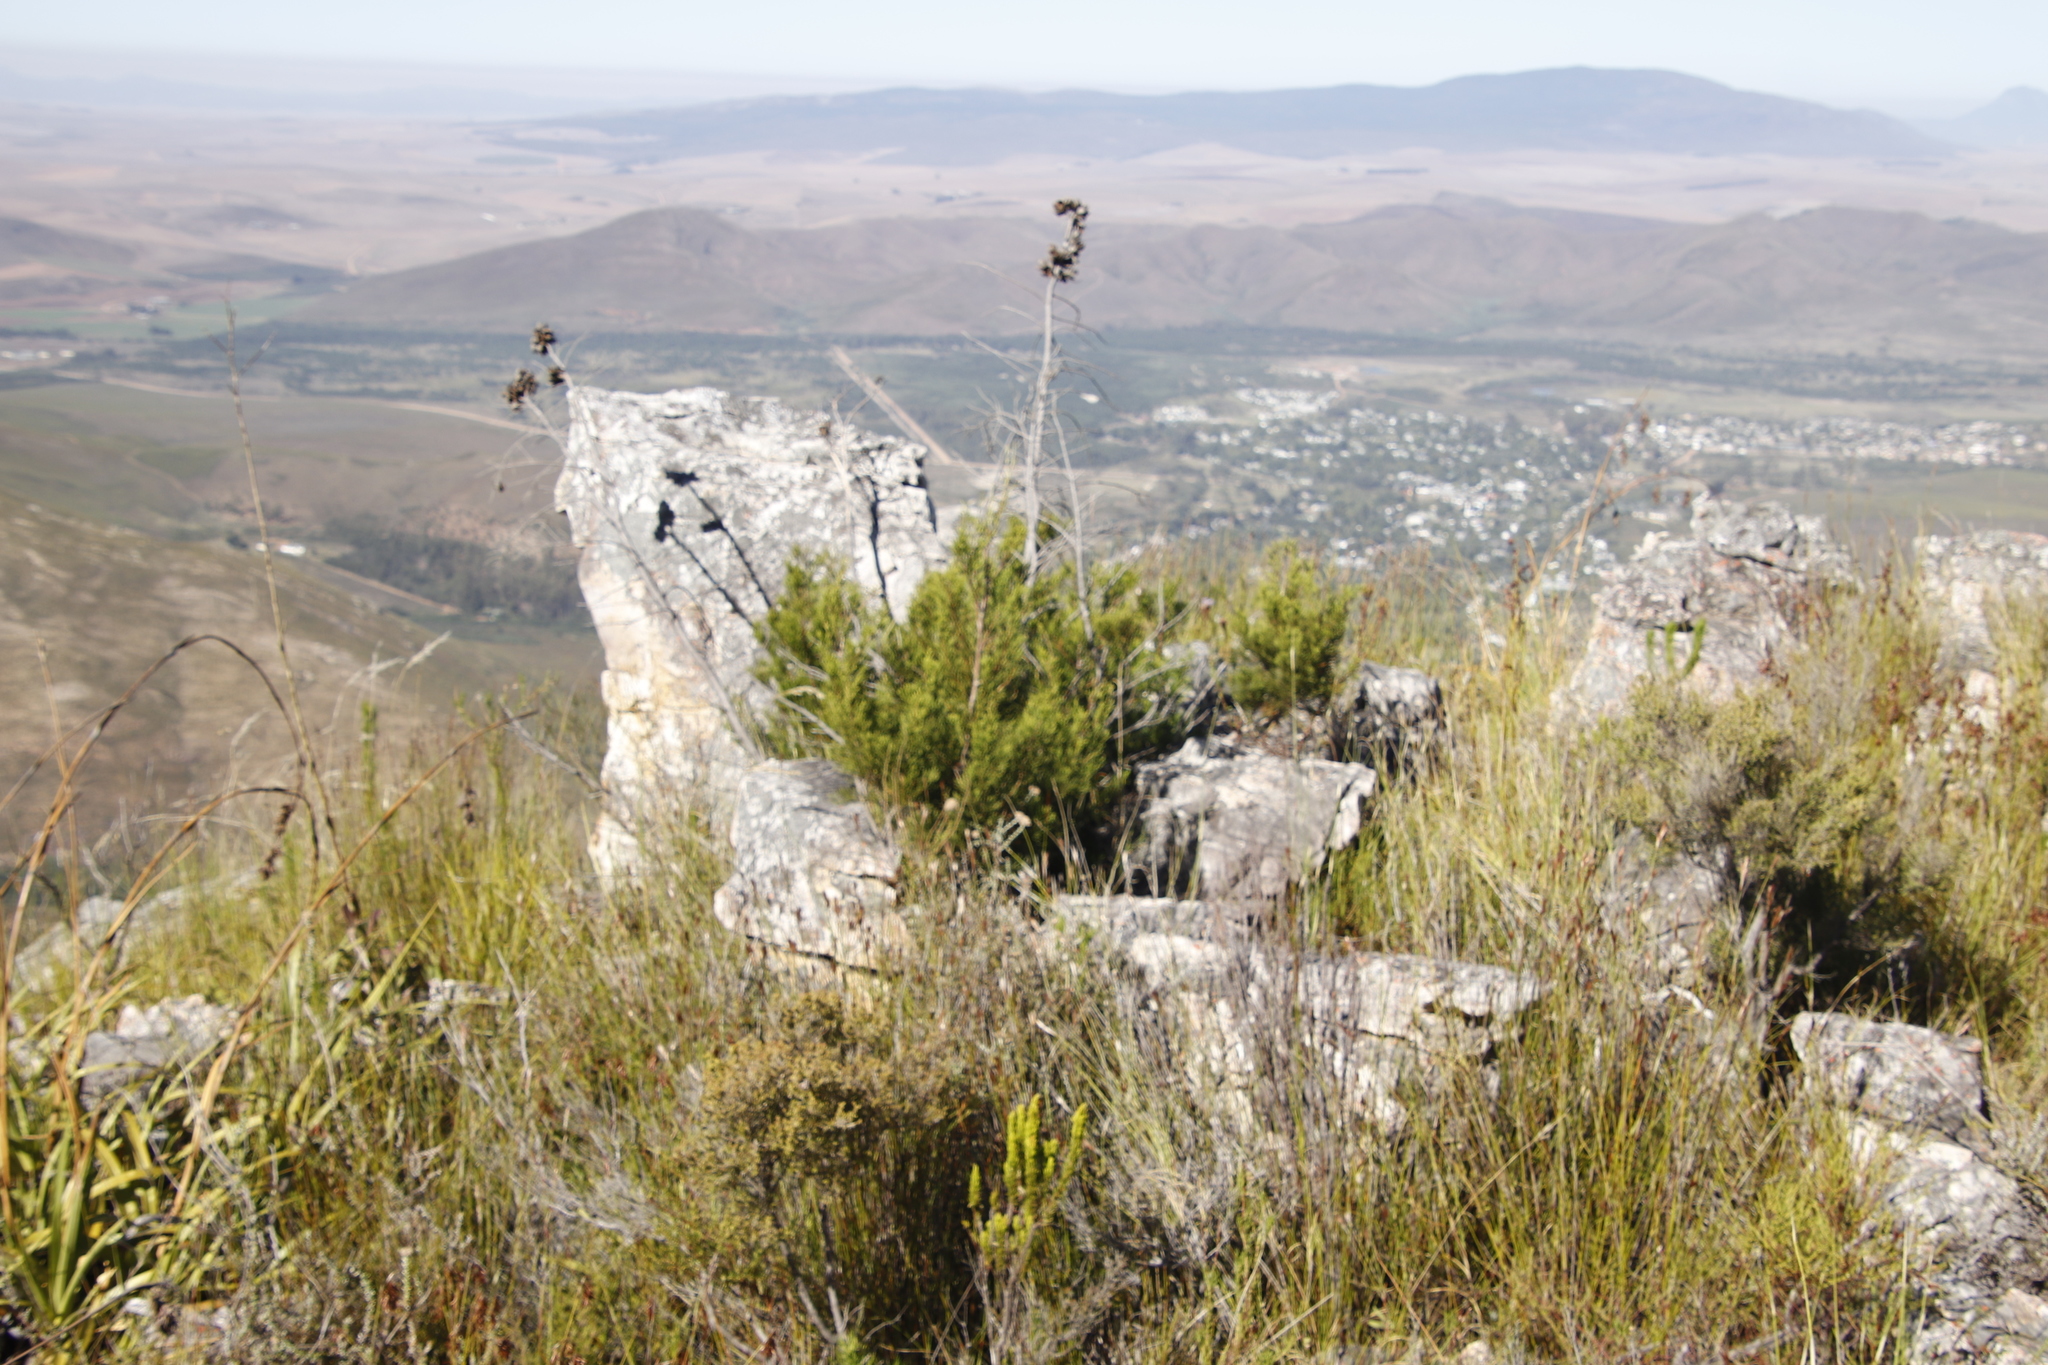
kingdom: Plantae
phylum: Tracheophyta
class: Pinopsida
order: Pinales
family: Cupressaceae
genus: Widdringtonia
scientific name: Widdringtonia nodiflora
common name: Cape cypress
